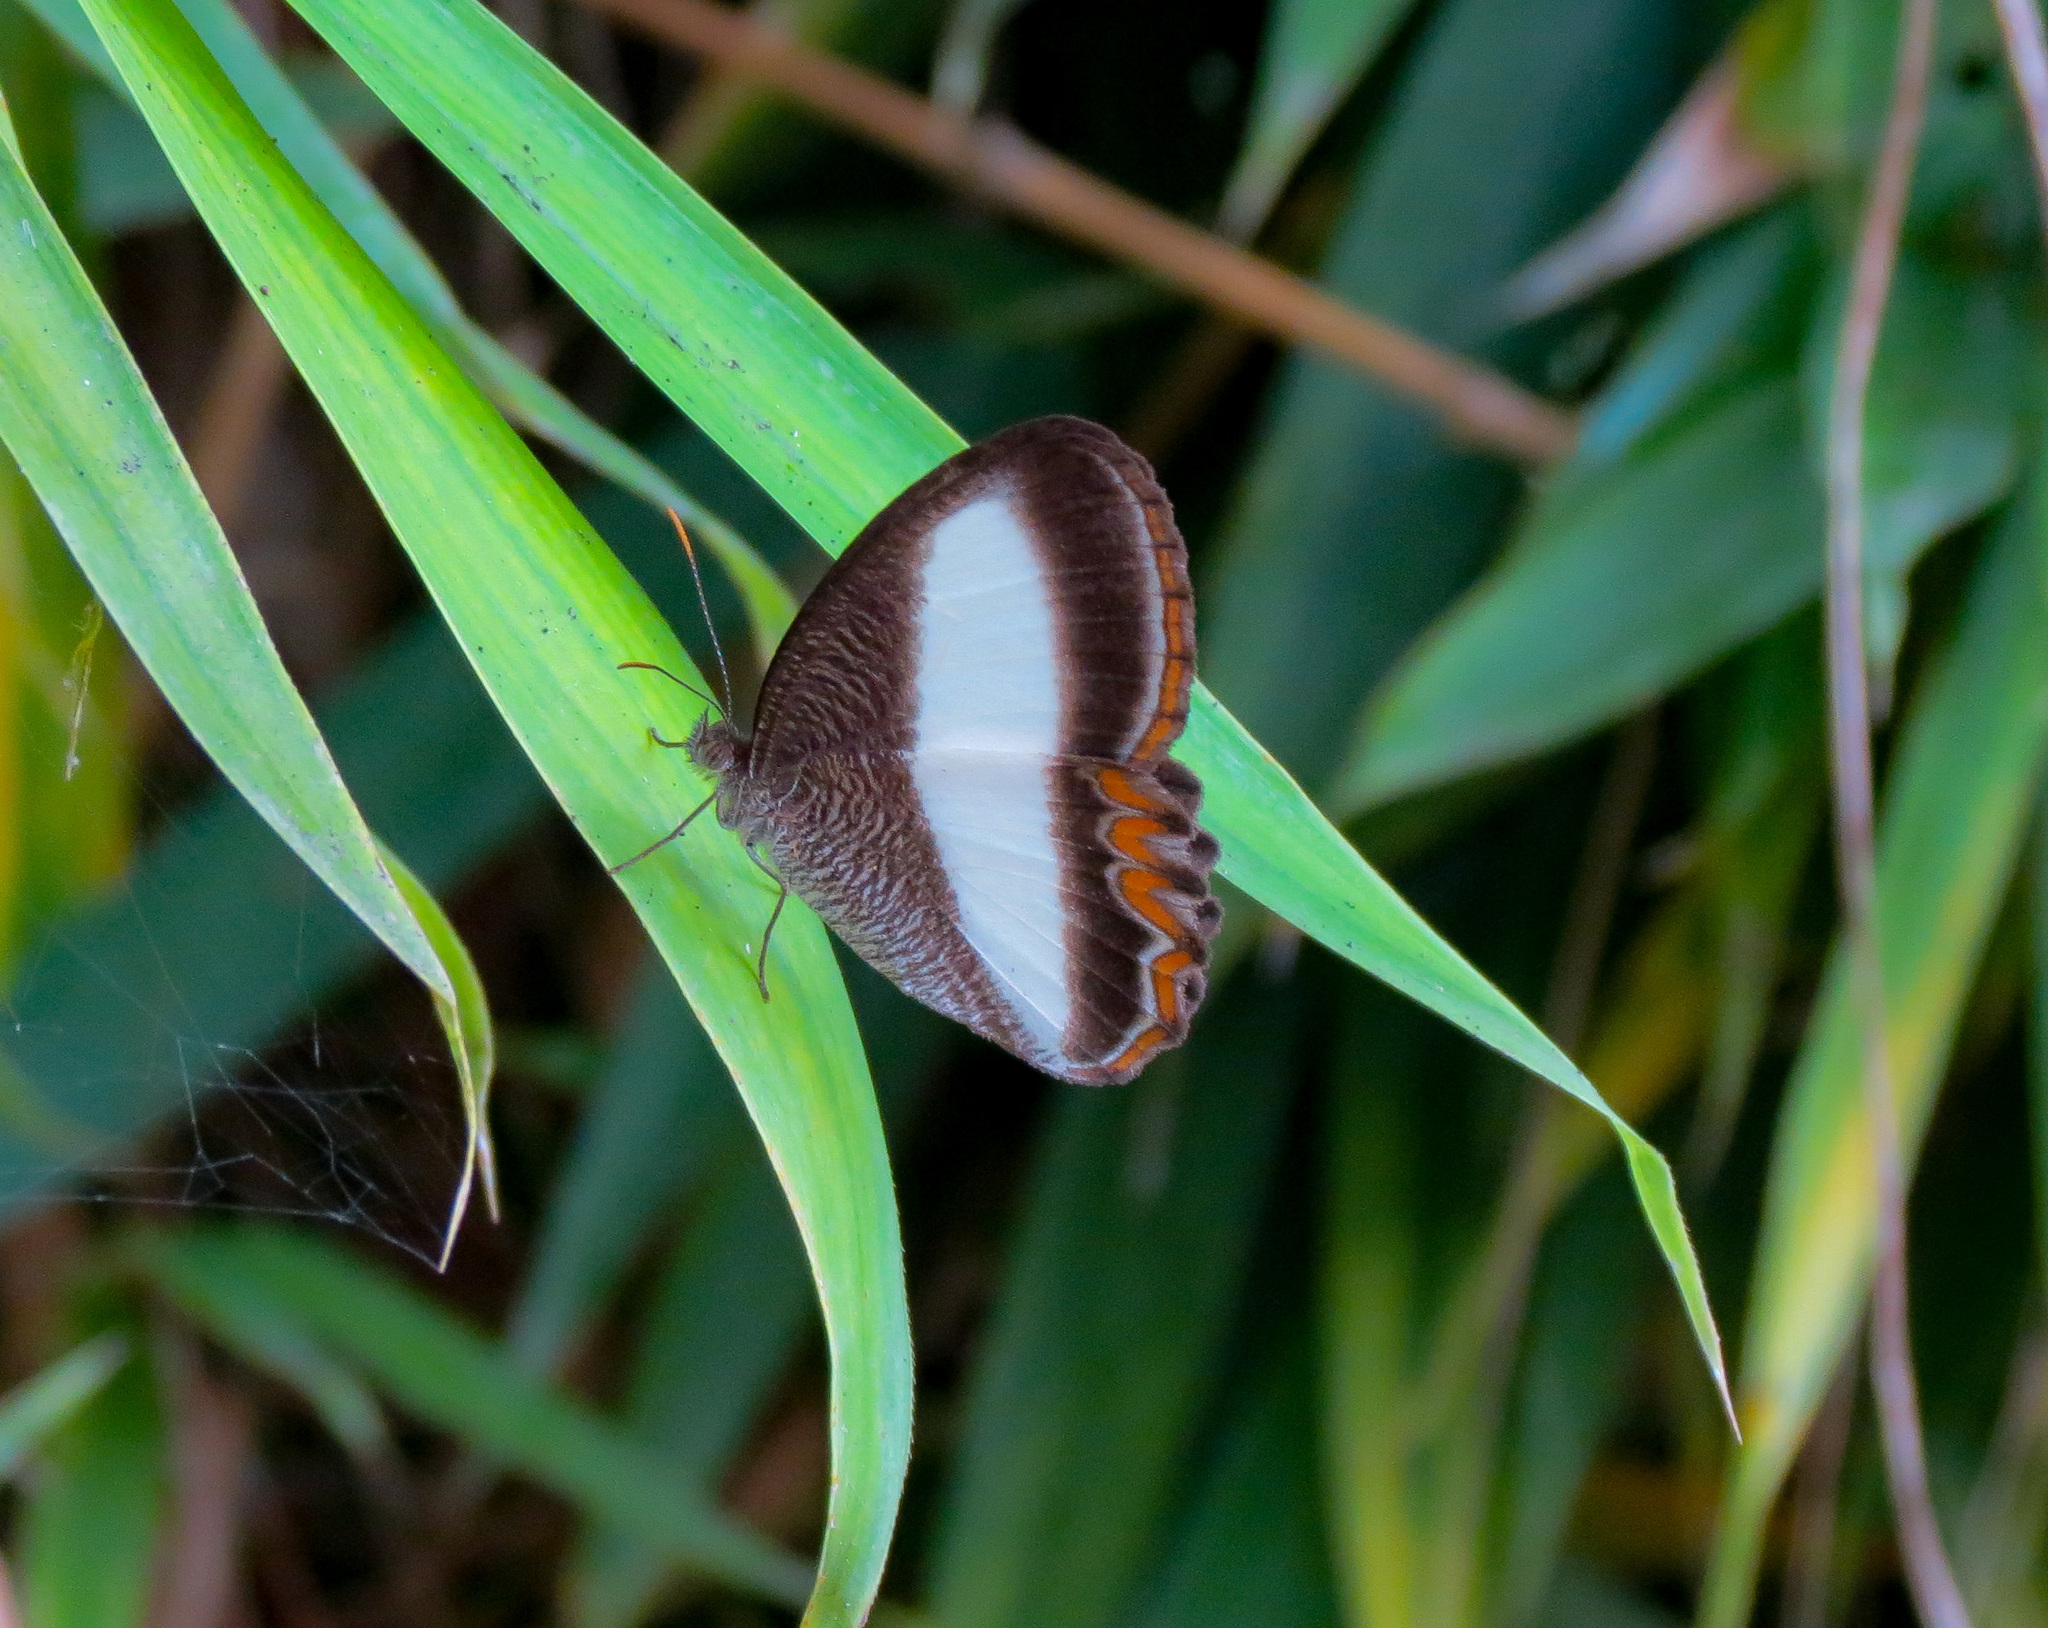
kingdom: Animalia
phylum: Arthropoda
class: Insecta
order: Lepidoptera
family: Nymphalidae
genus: Oressinoma
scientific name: Oressinoma typhla
